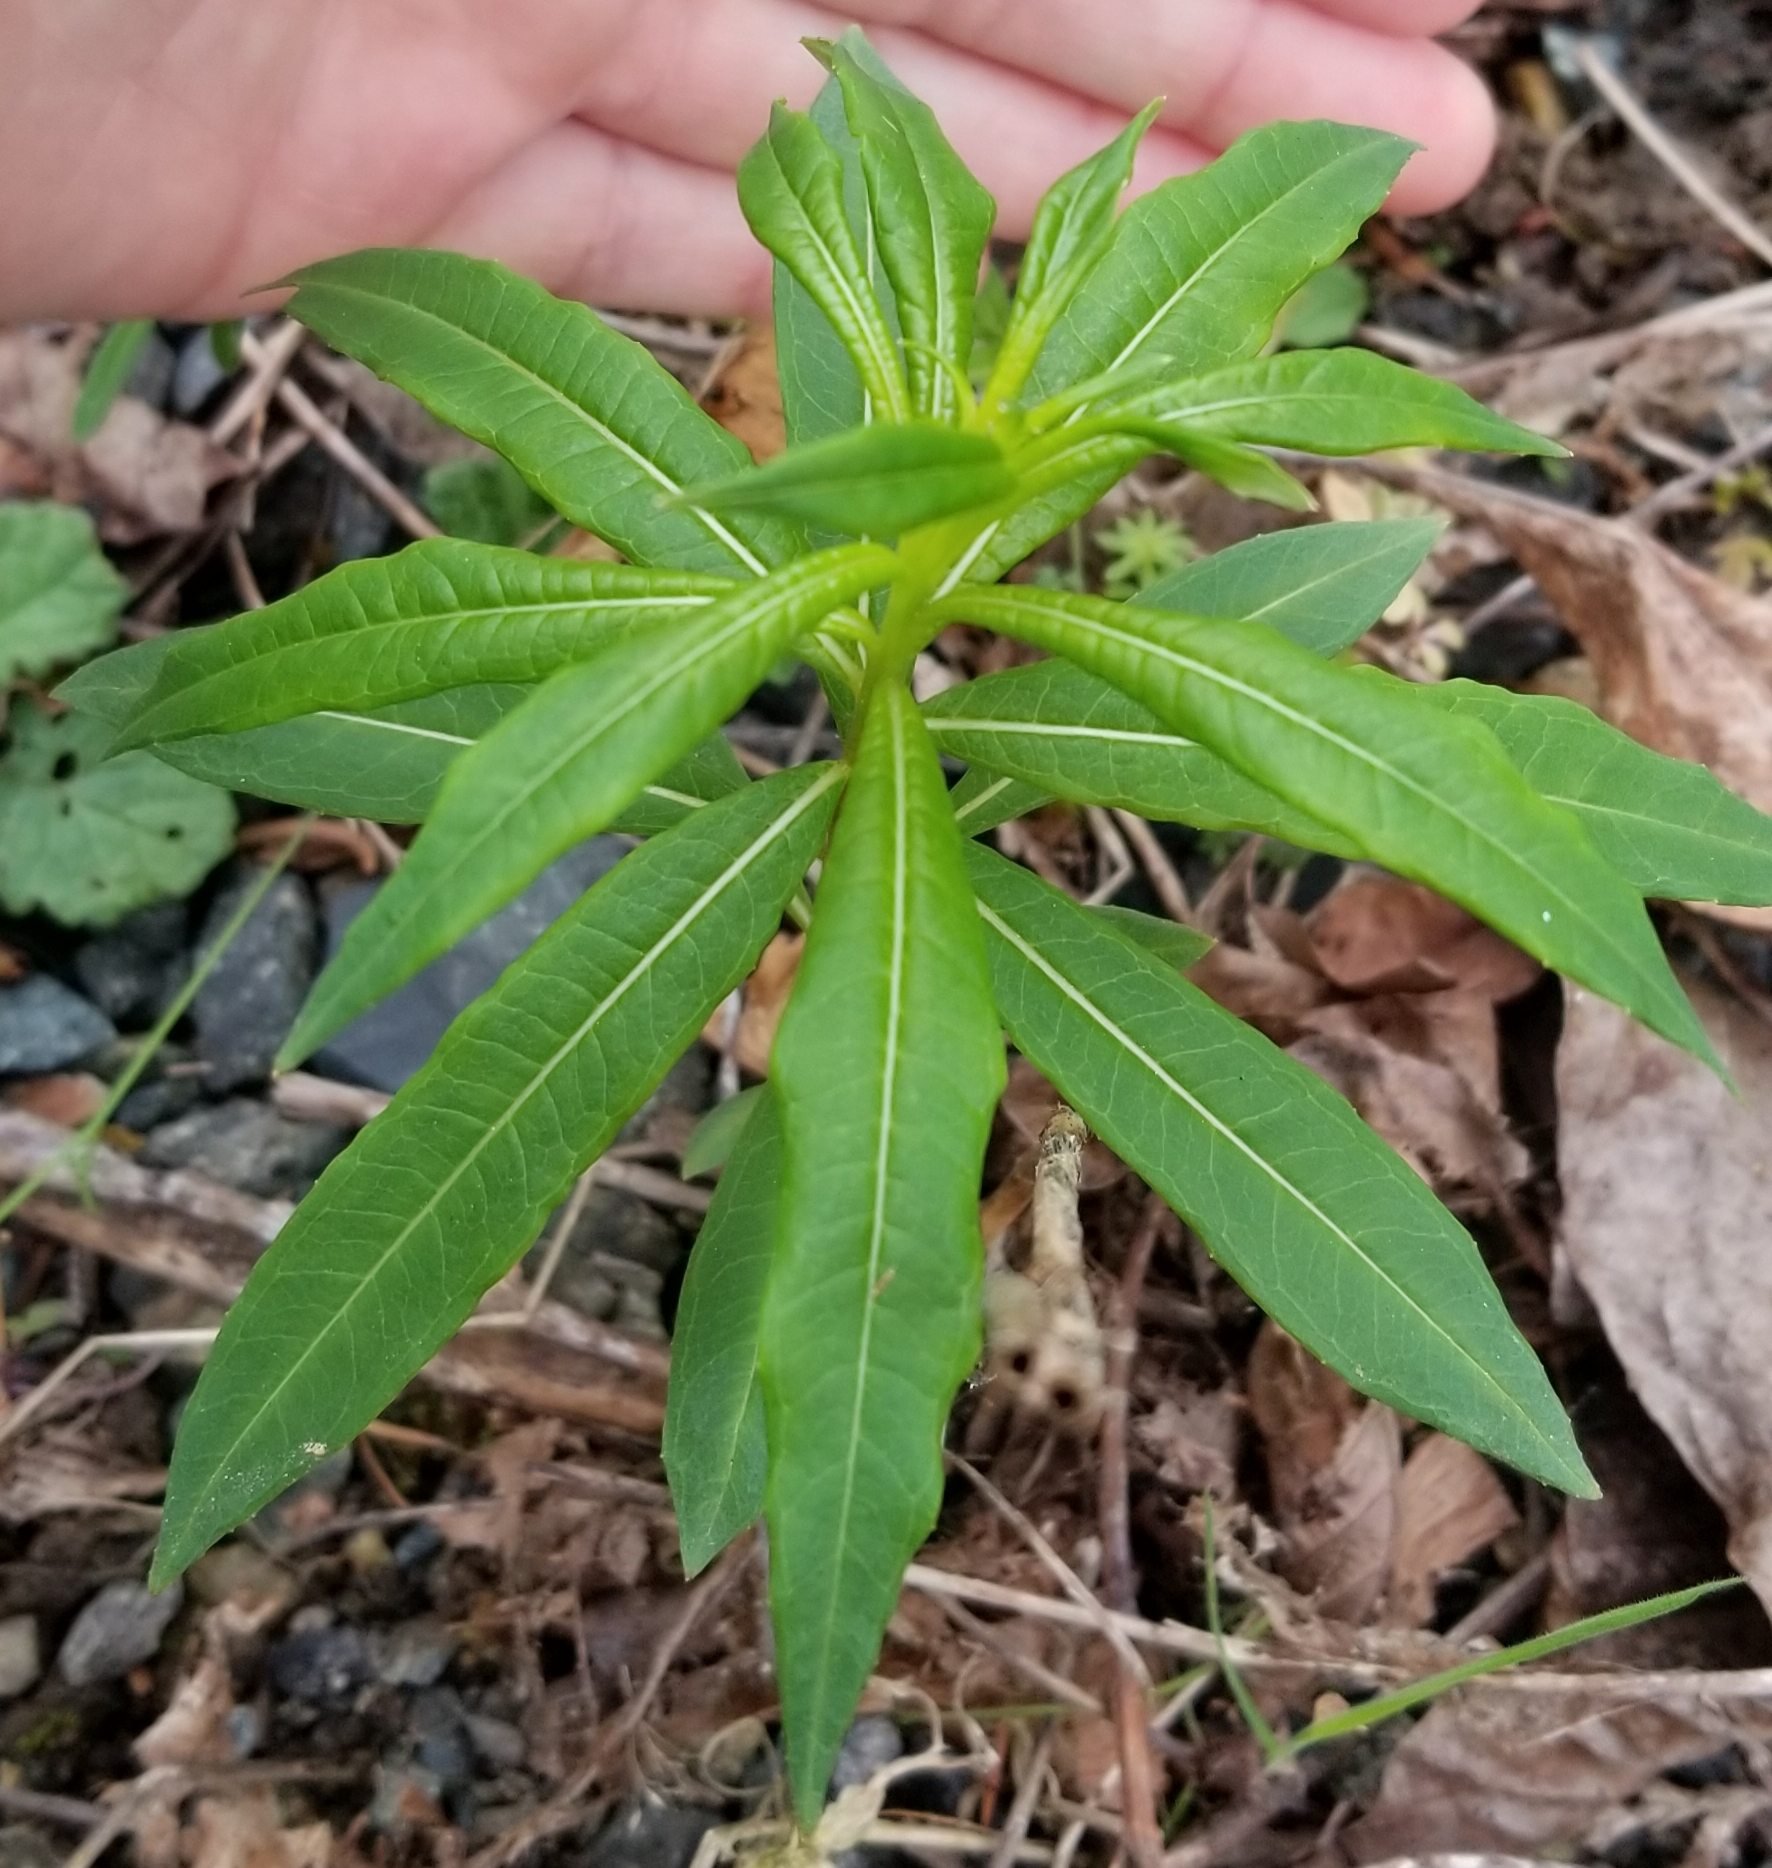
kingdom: Plantae
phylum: Tracheophyta
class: Magnoliopsida
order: Myrtales
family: Onagraceae
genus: Chamaenerion
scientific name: Chamaenerion angustifolium
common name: Fireweed
